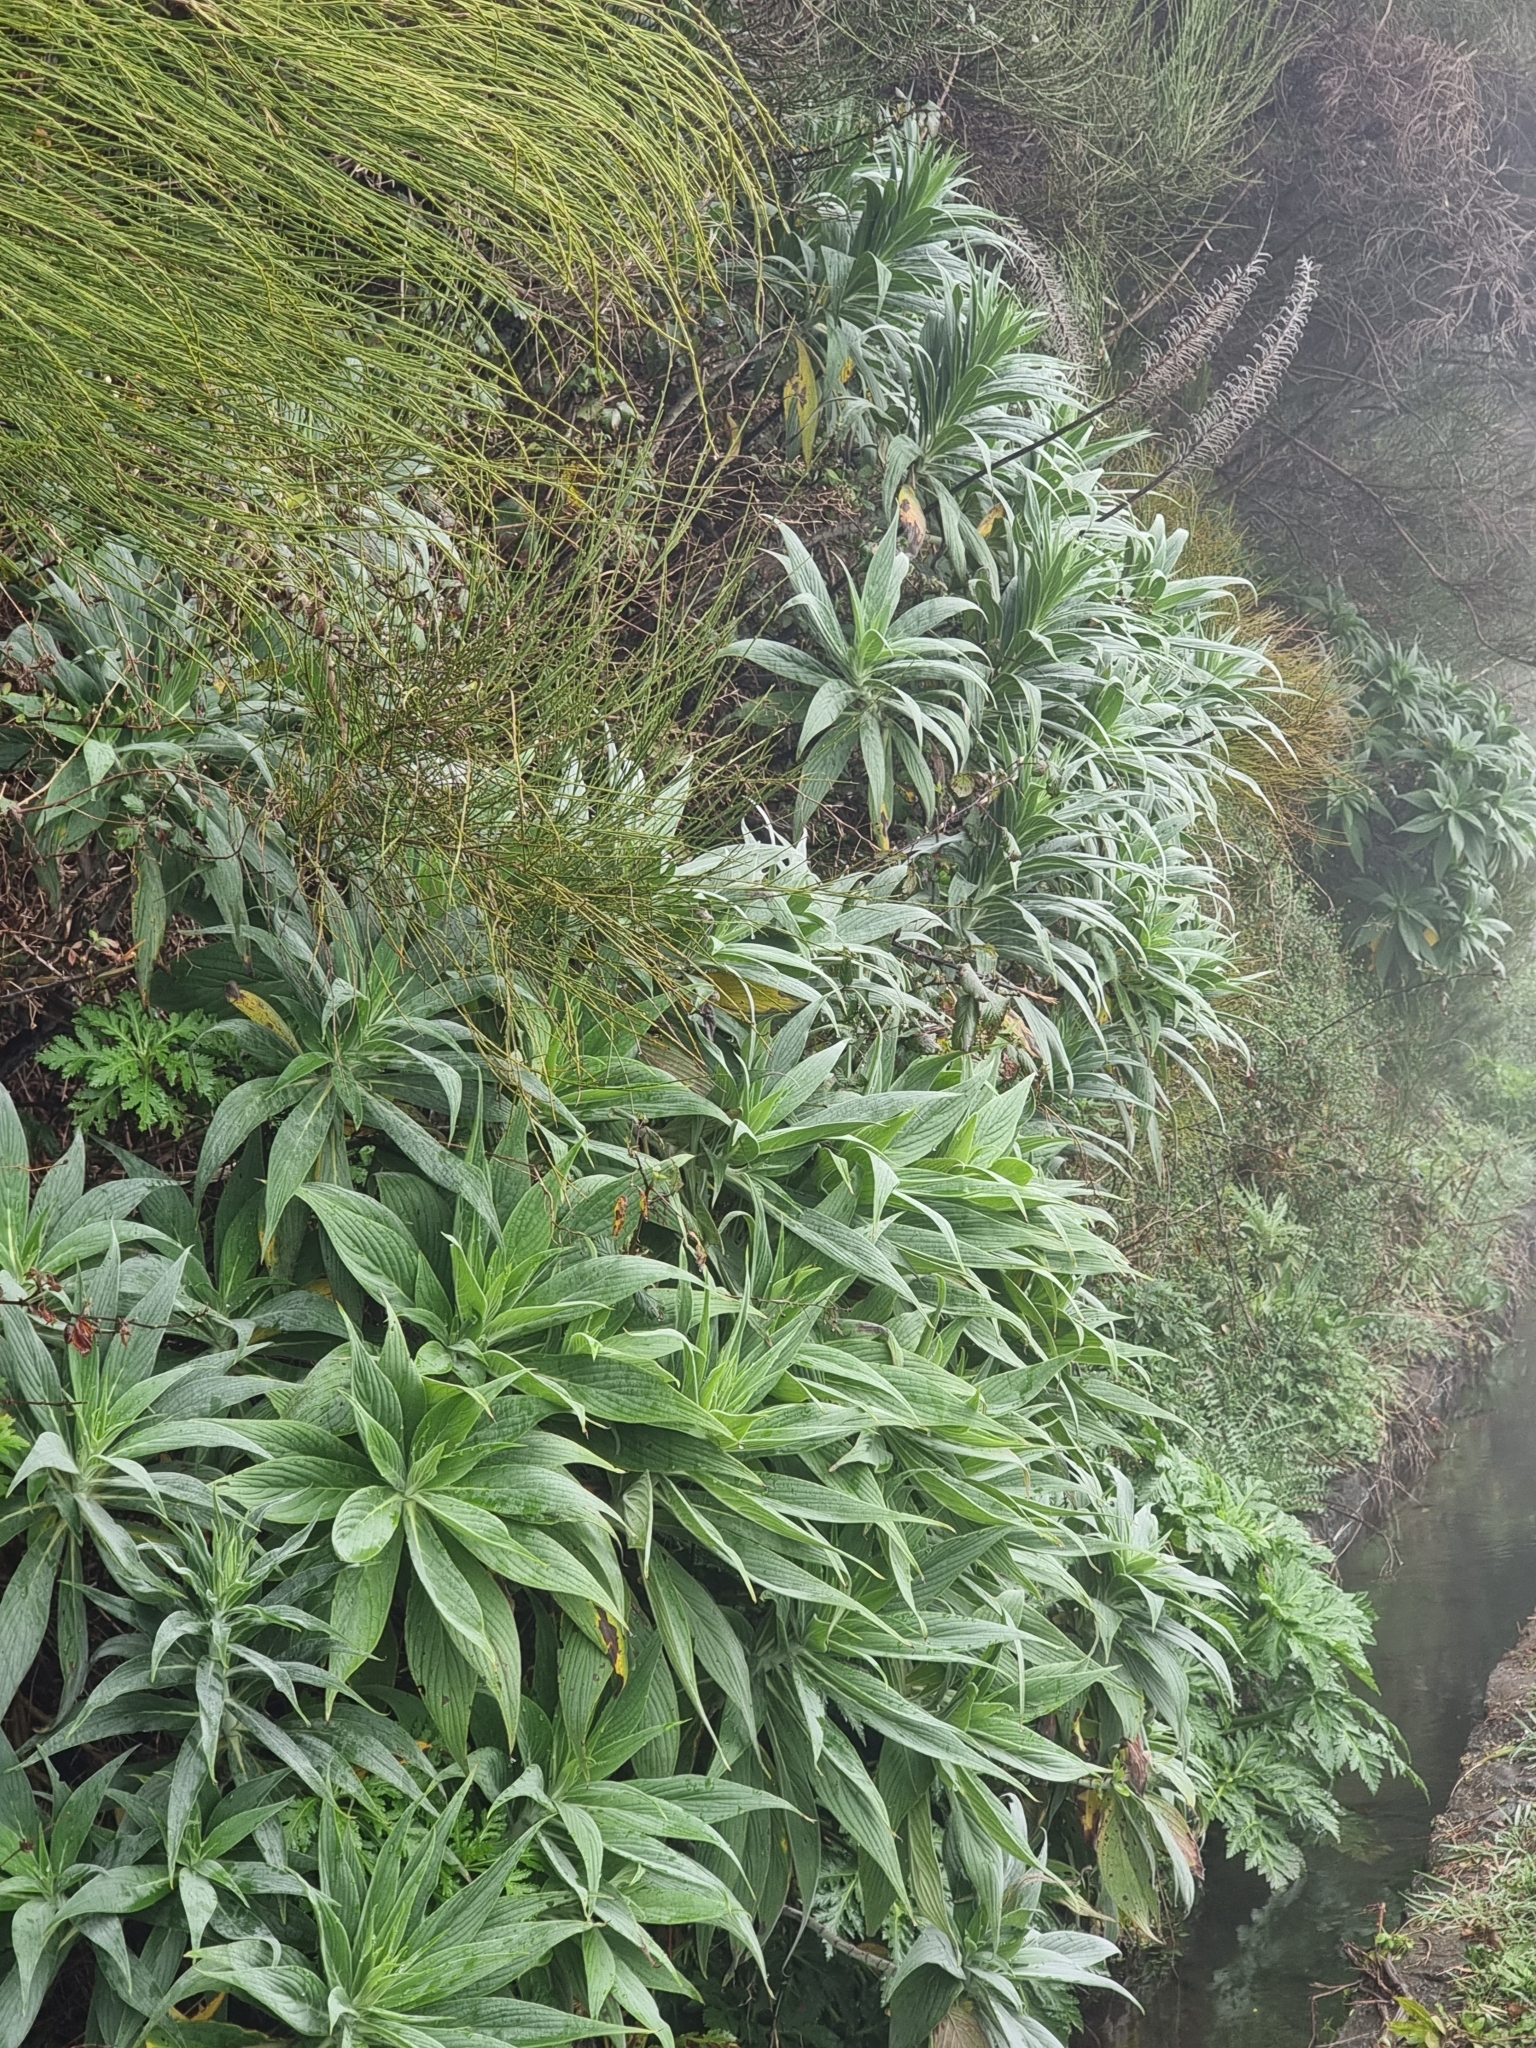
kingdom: Plantae
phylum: Tracheophyta
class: Magnoliopsida
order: Boraginales
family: Boraginaceae
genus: Echium
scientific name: Echium candicans
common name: Pride of madeira
